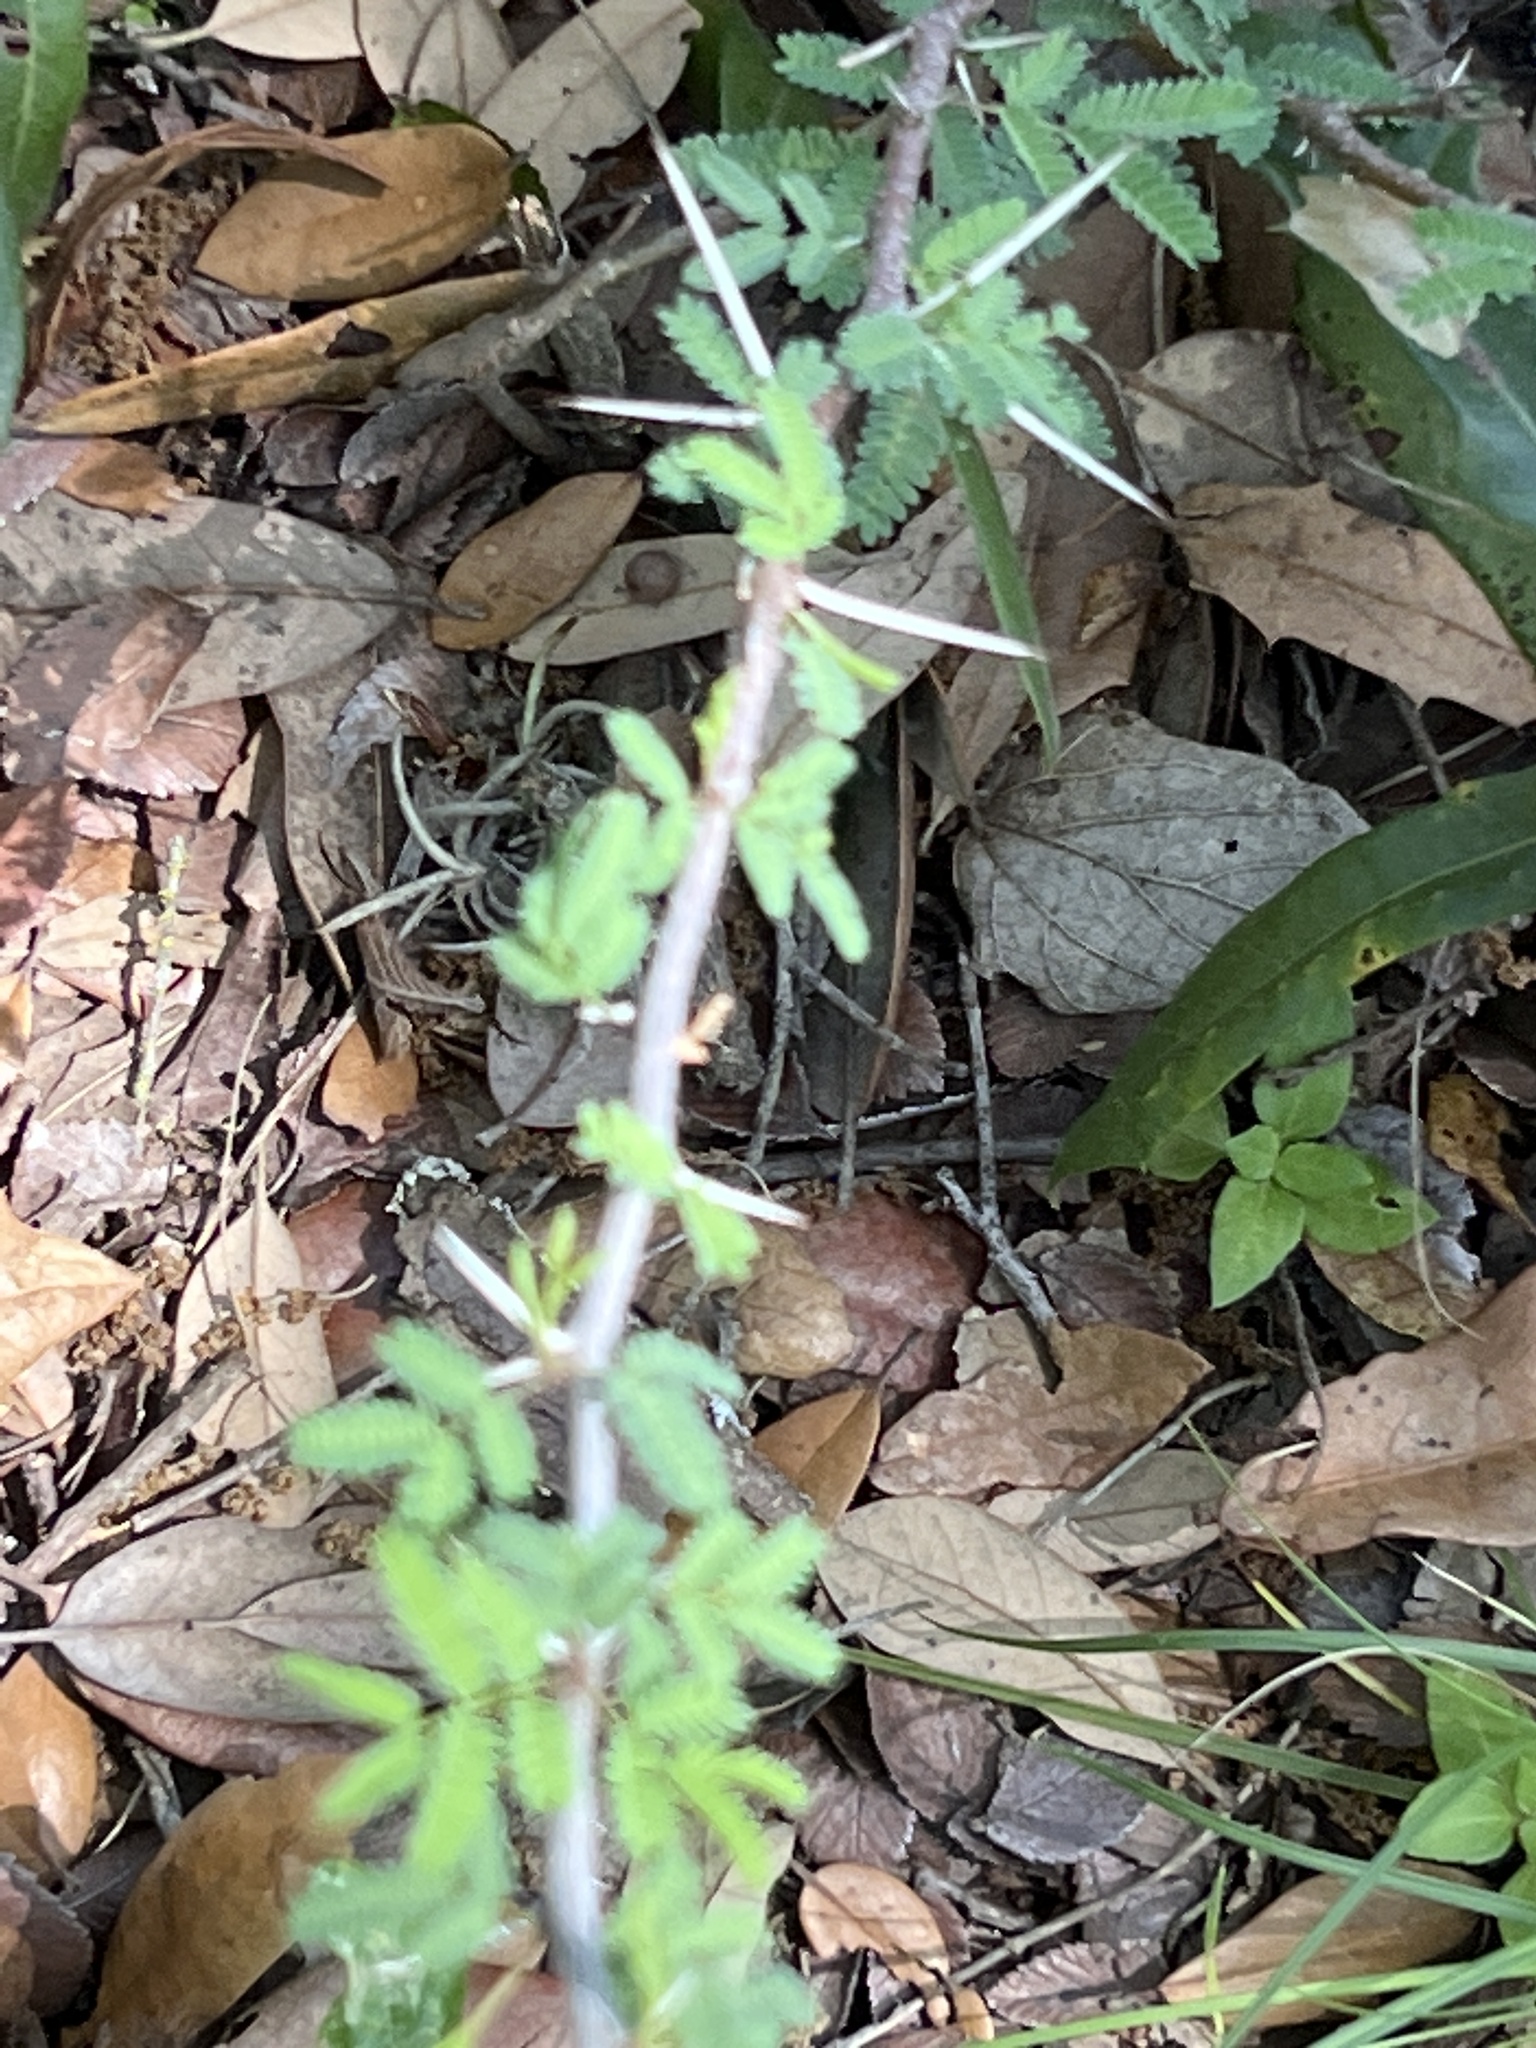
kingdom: Plantae
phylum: Tracheophyta
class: Magnoliopsida
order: Fabales
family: Fabaceae
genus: Vachellia
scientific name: Vachellia farnesiana
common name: Sweet acacia
